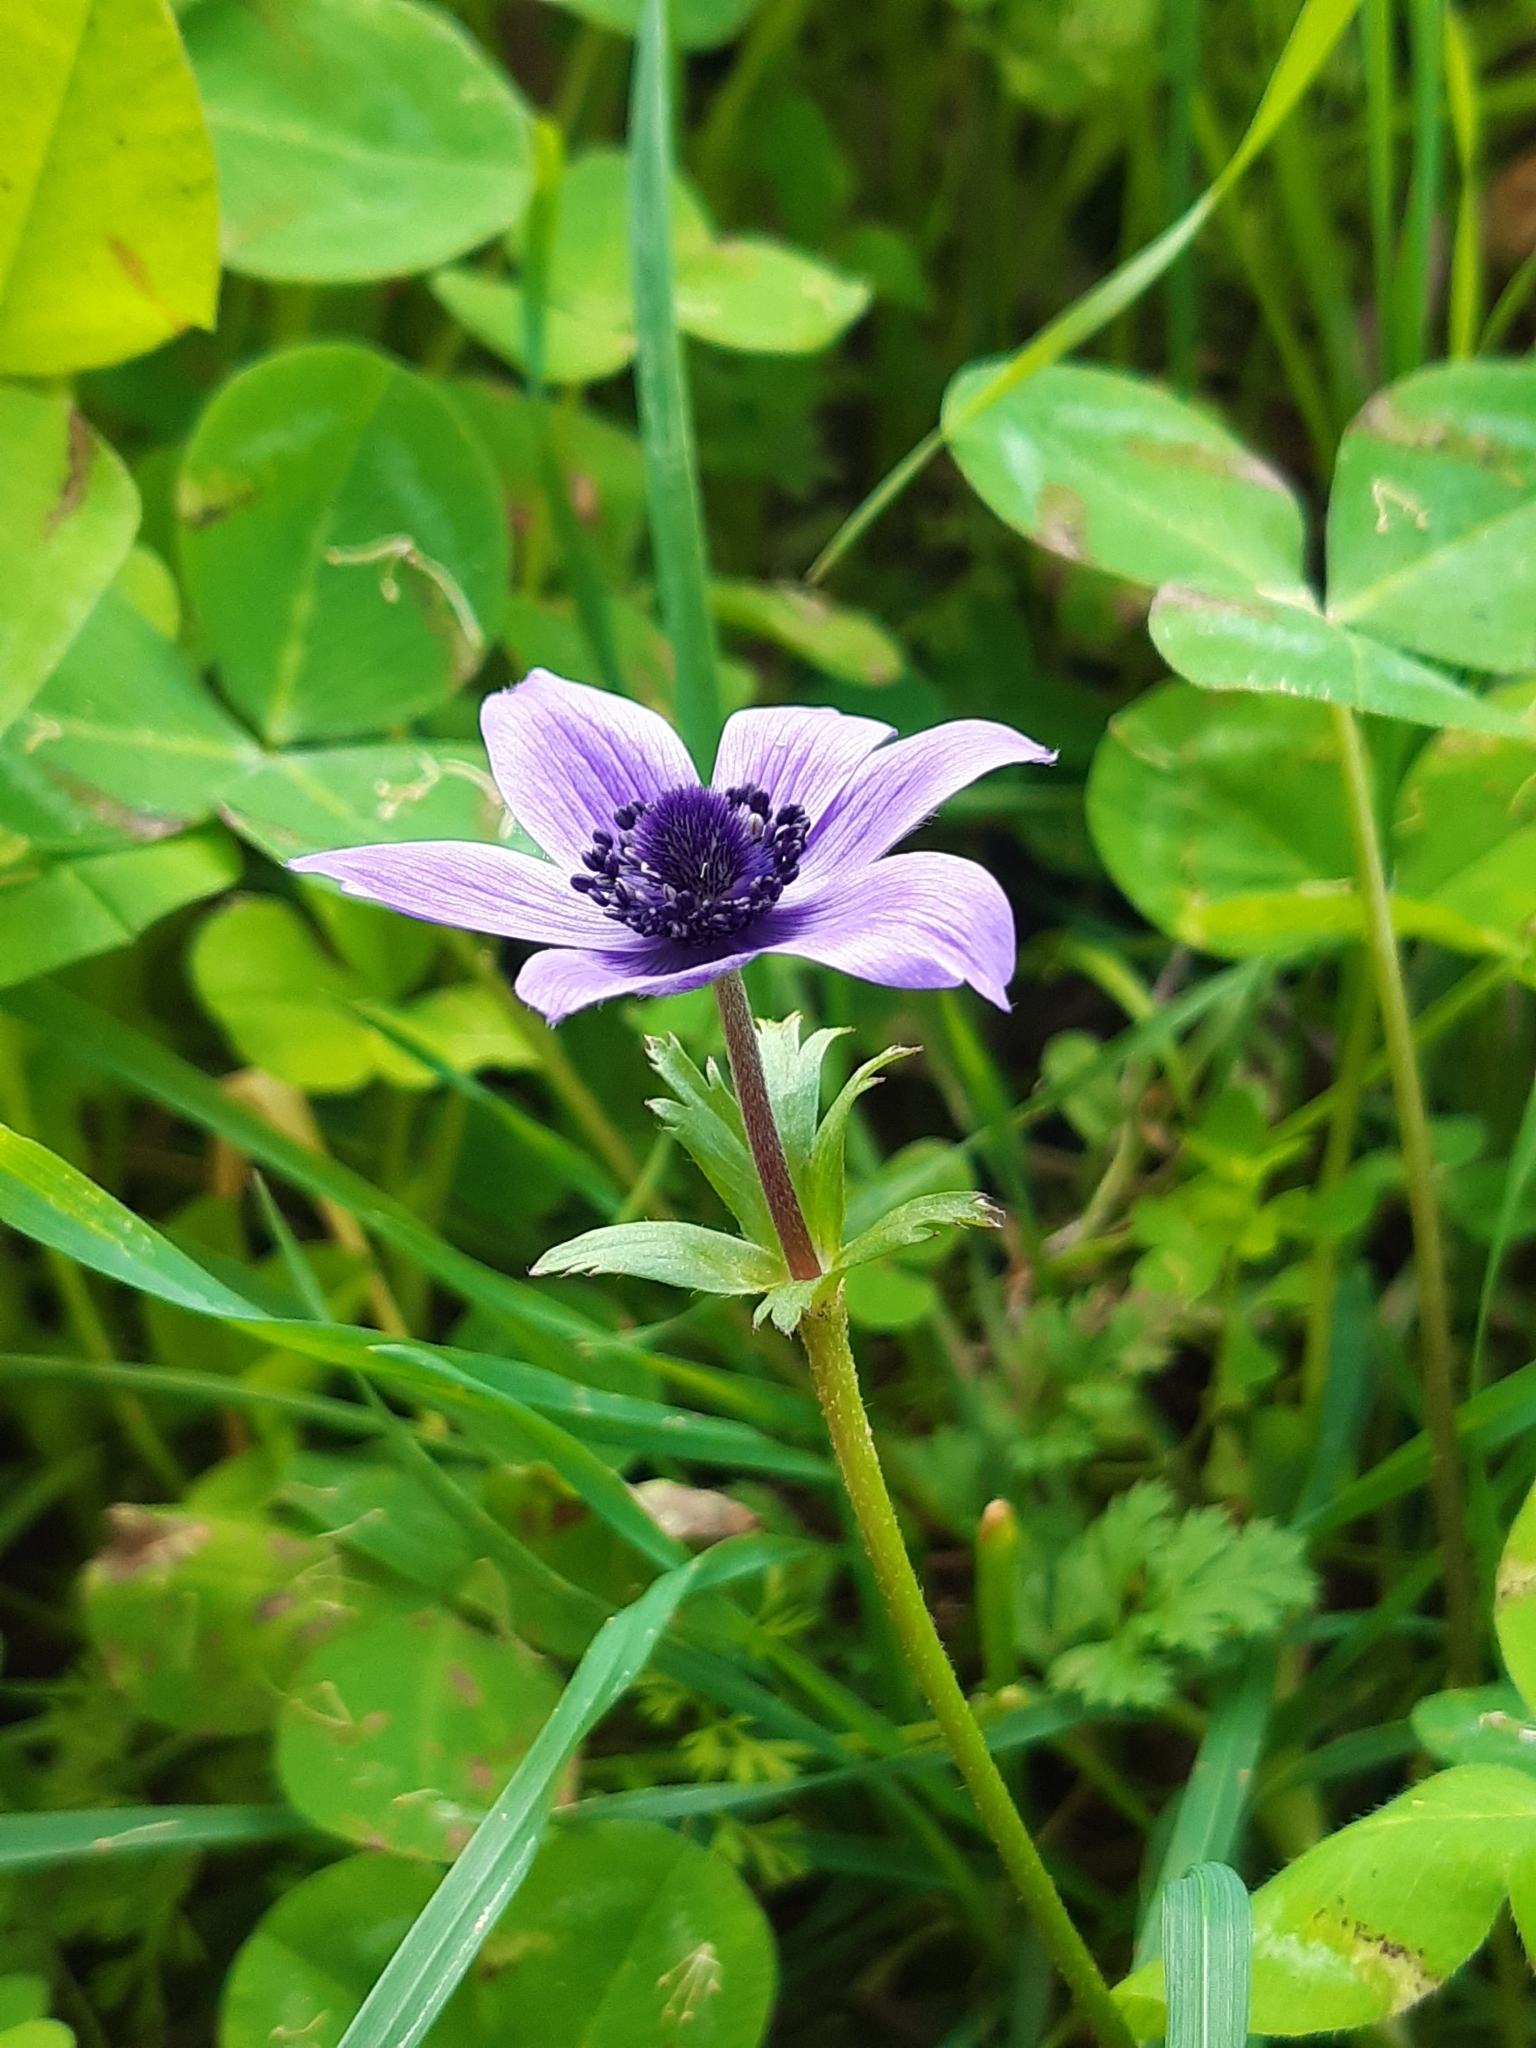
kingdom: Plantae
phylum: Tracheophyta
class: Magnoliopsida
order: Ranunculales
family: Ranunculaceae
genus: Anemone
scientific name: Anemone coronaria
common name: Poppy anemone
